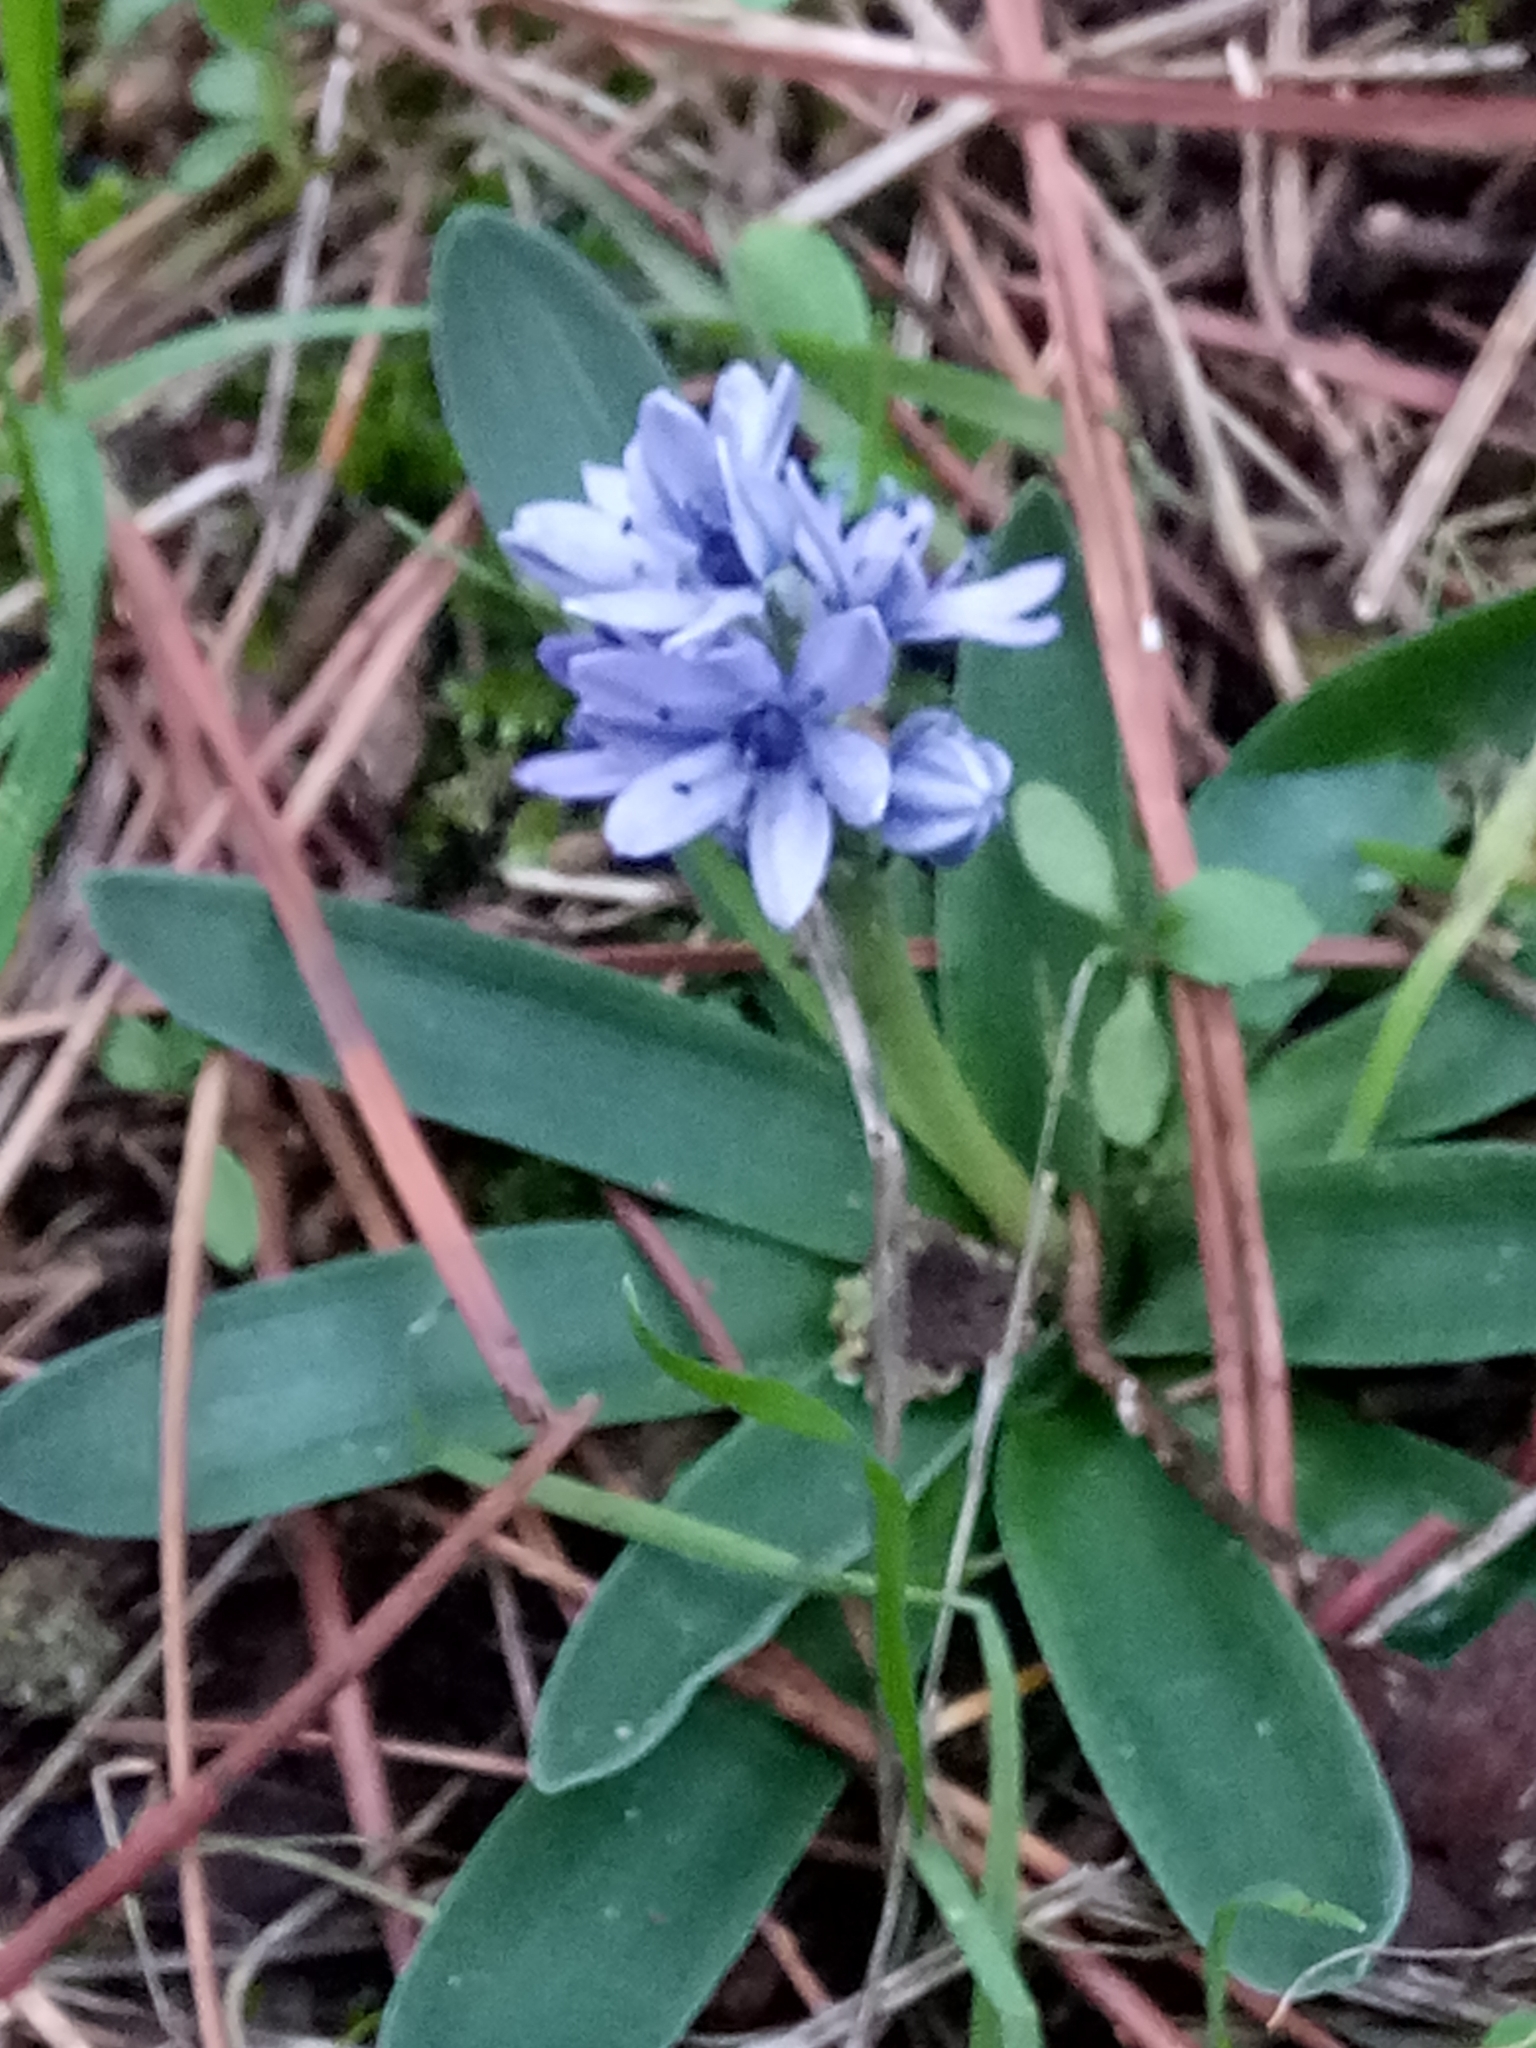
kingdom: Plantae
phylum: Tracheophyta
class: Liliopsida
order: Asparagales
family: Asparagaceae
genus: Hyacinthoides
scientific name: Hyacinthoides lingulata
